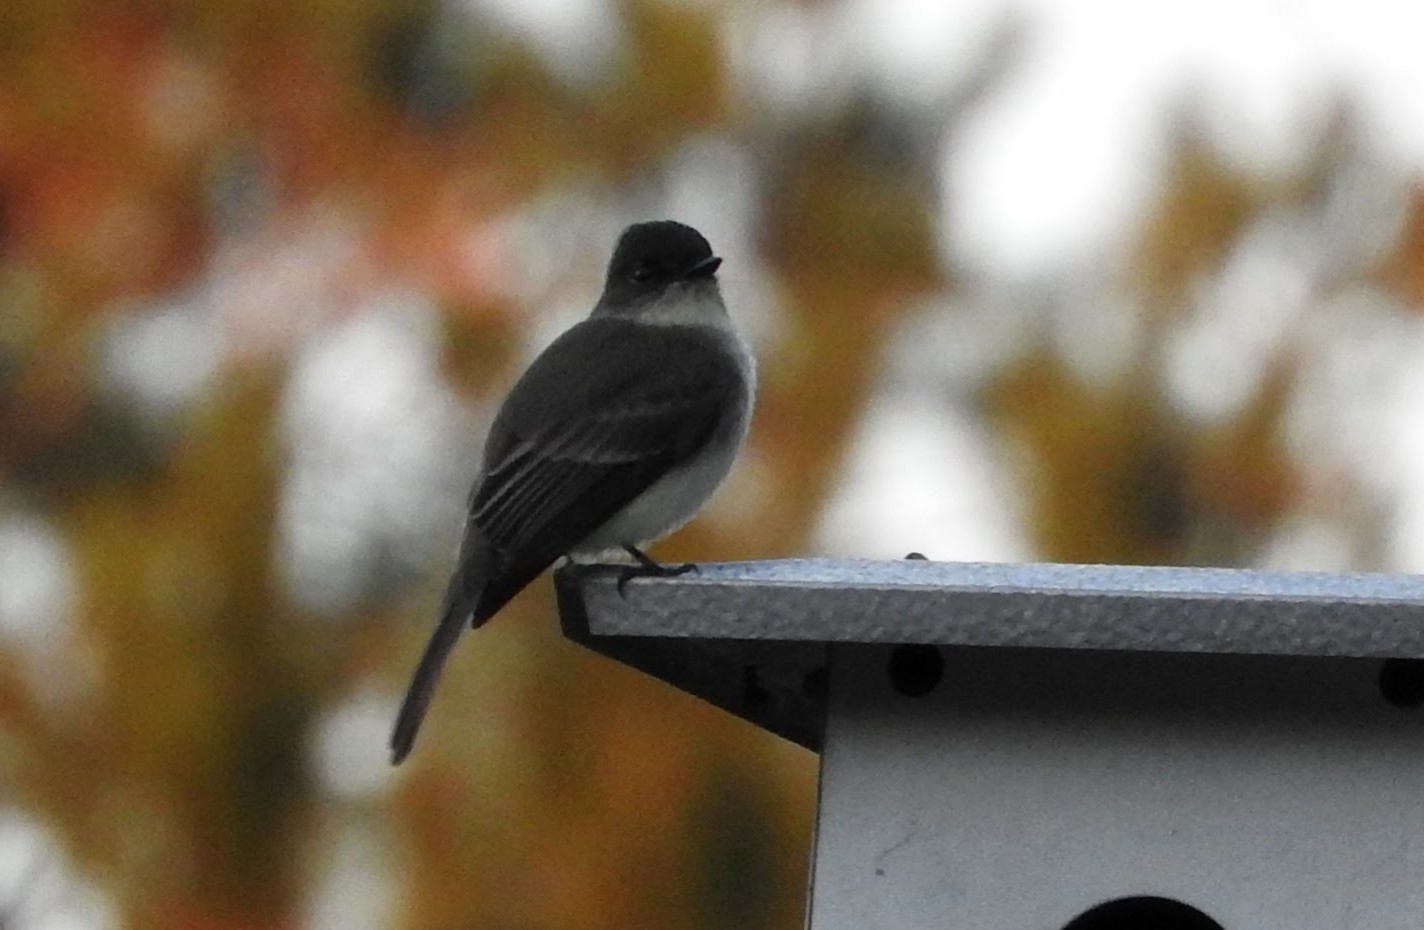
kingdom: Animalia
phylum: Chordata
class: Aves
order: Passeriformes
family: Tyrannidae
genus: Sayornis
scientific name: Sayornis phoebe
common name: Eastern phoebe
